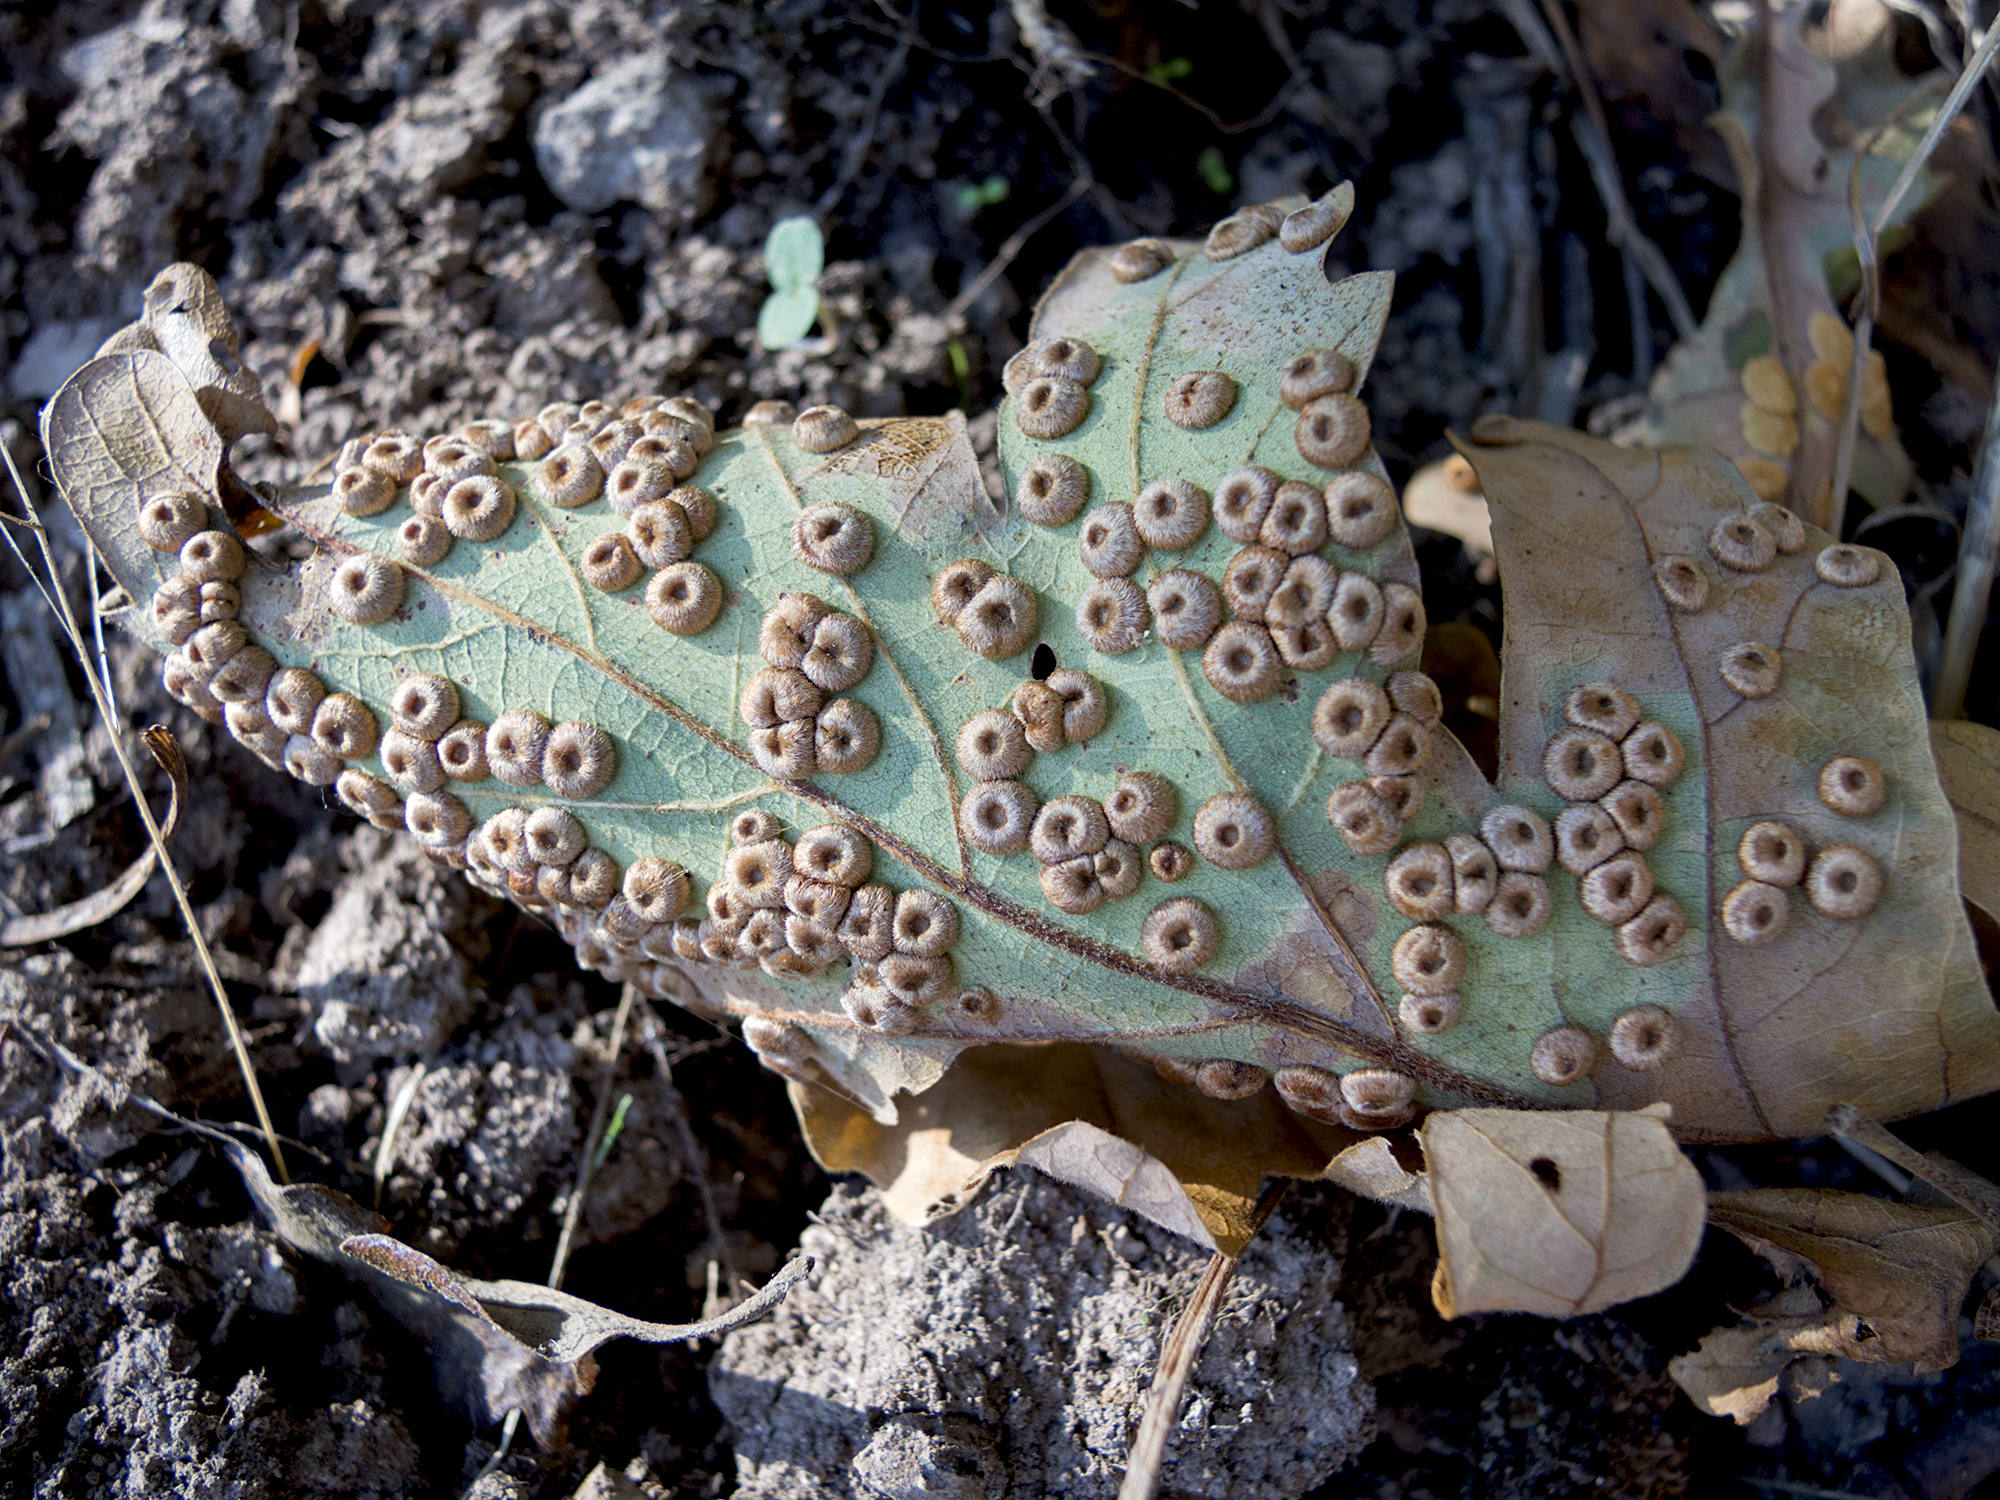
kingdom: Animalia
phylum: Arthropoda
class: Insecta
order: Hymenoptera
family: Cynipidae
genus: Neuroterus
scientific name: Neuroterus numismalis
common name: Silk-button spangle gall
